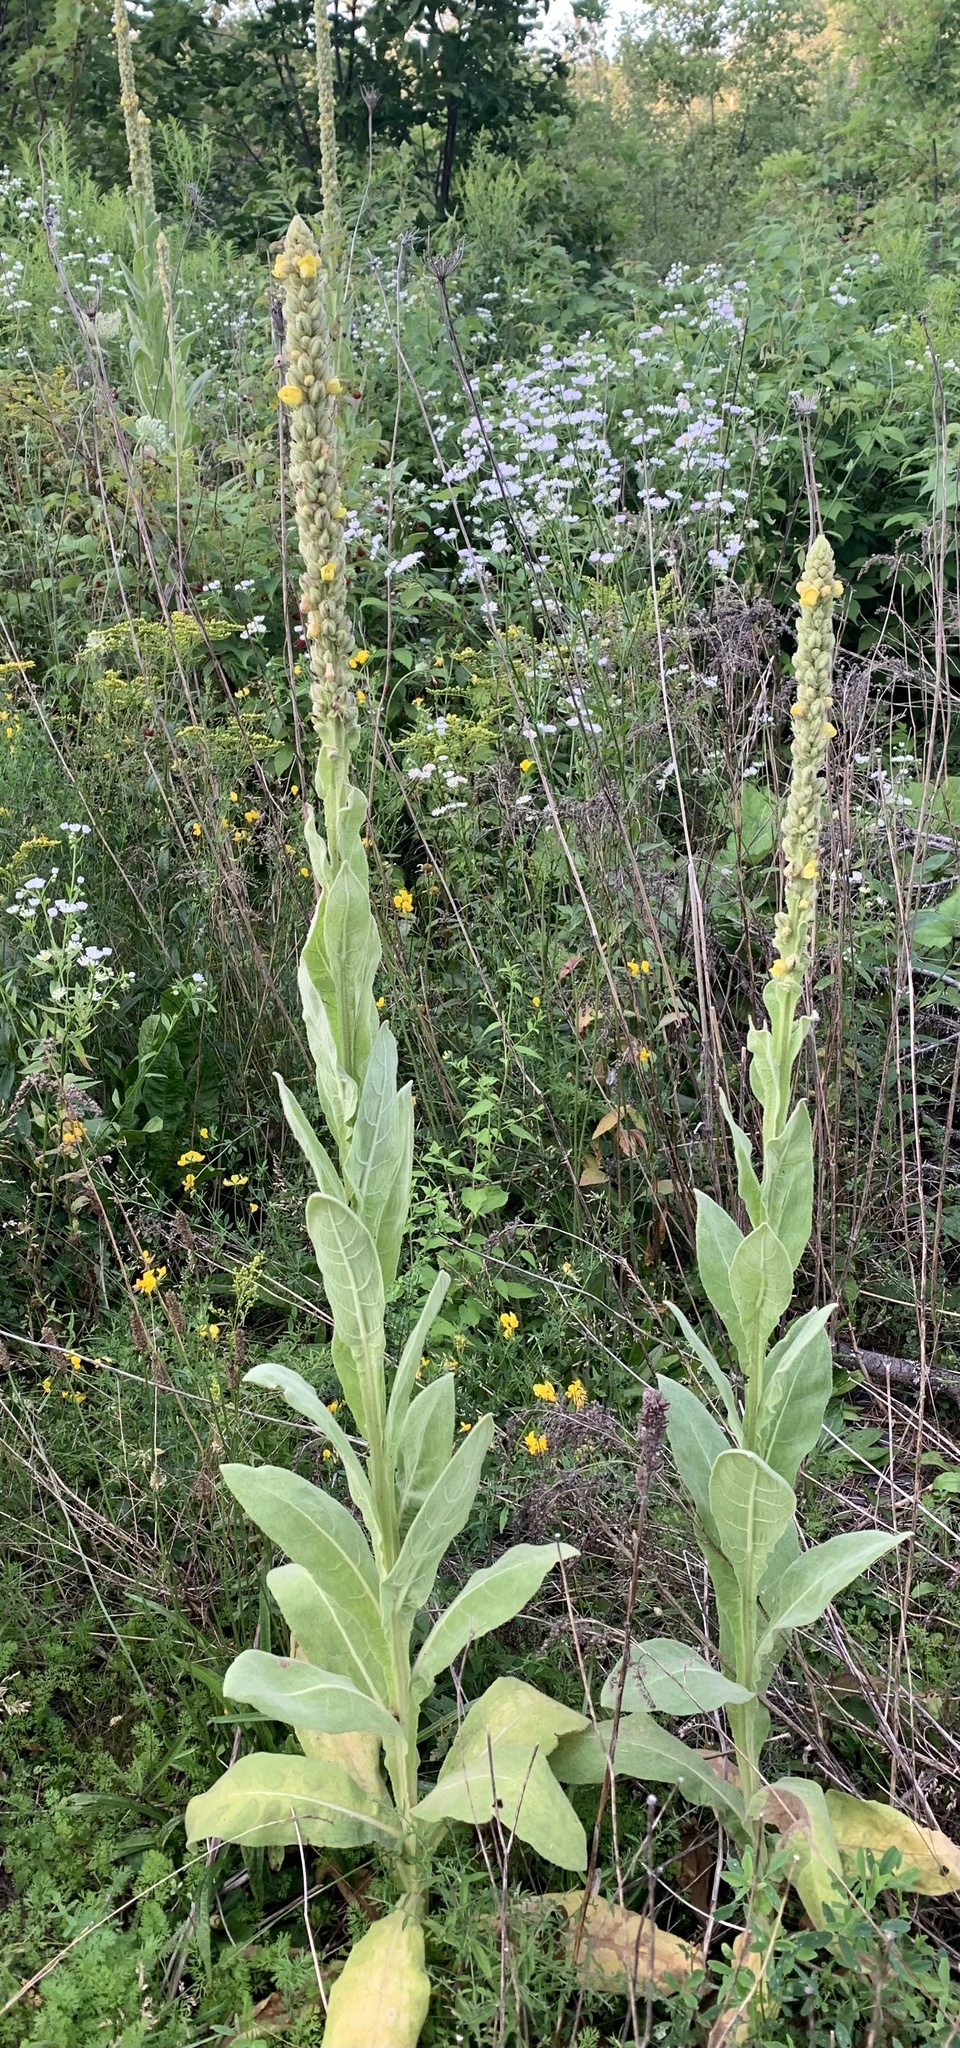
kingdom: Plantae
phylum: Tracheophyta
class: Magnoliopsida
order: Lamiales
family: Scrophulariaceae
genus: Verbascum
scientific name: Verbascum thapsus
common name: Common mullein
